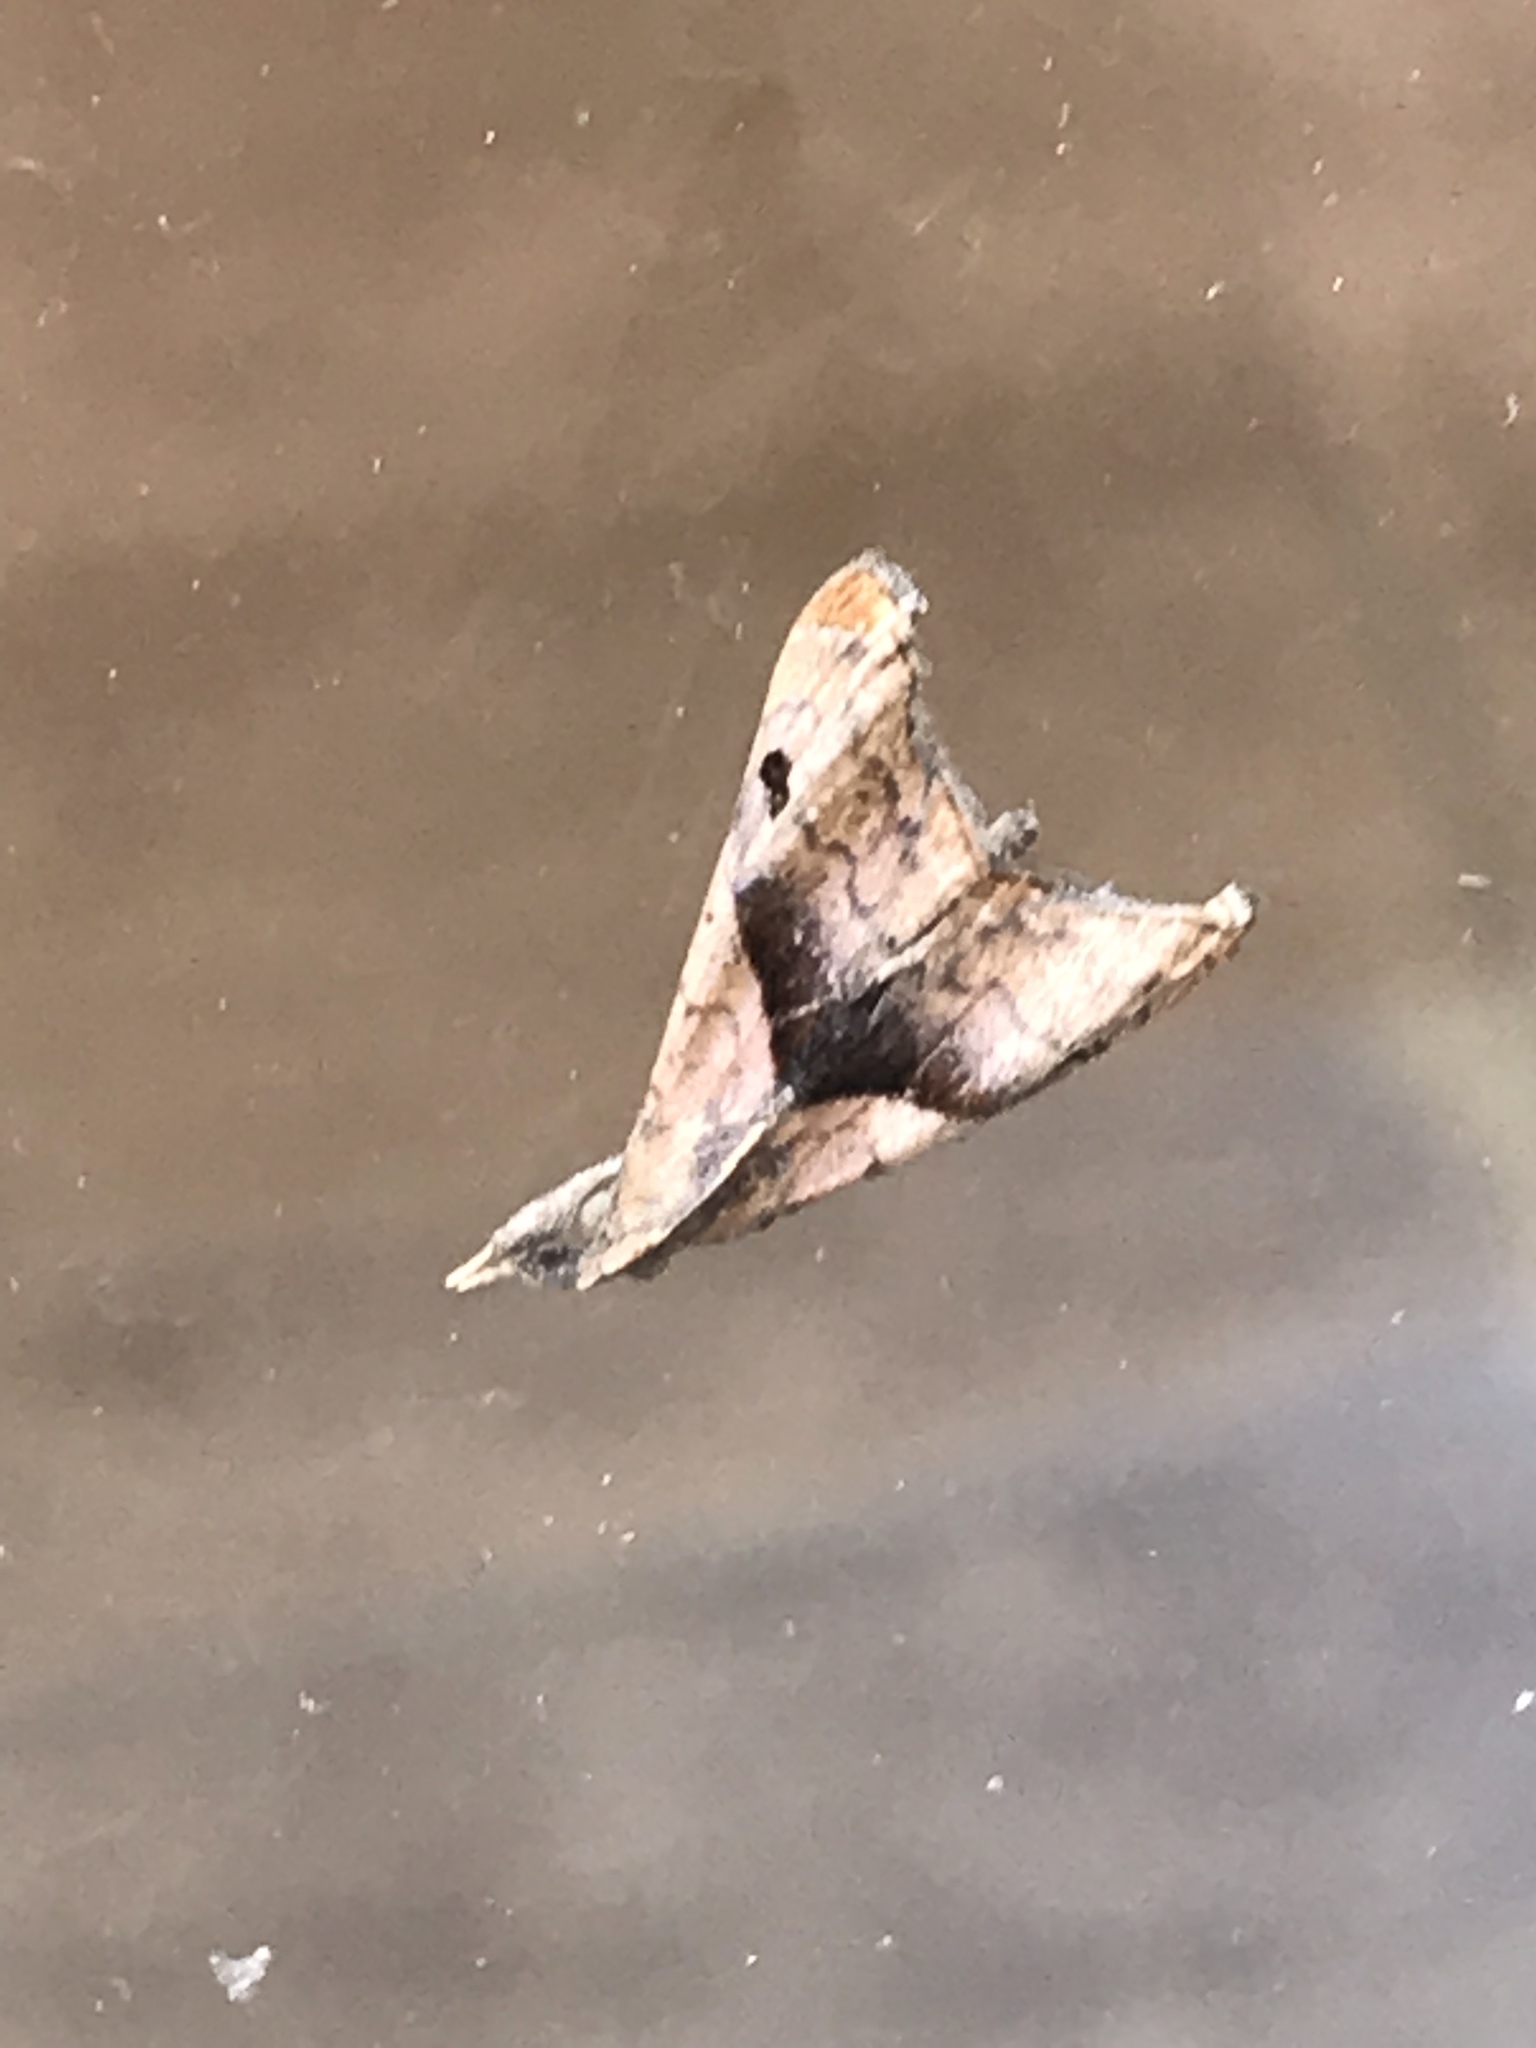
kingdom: Animalia
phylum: Arthropoda
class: Insecta
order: Lepidoptera
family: Erebidae
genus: Palthis
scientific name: Palthis angulalis
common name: Dark-spotted palthis moth
